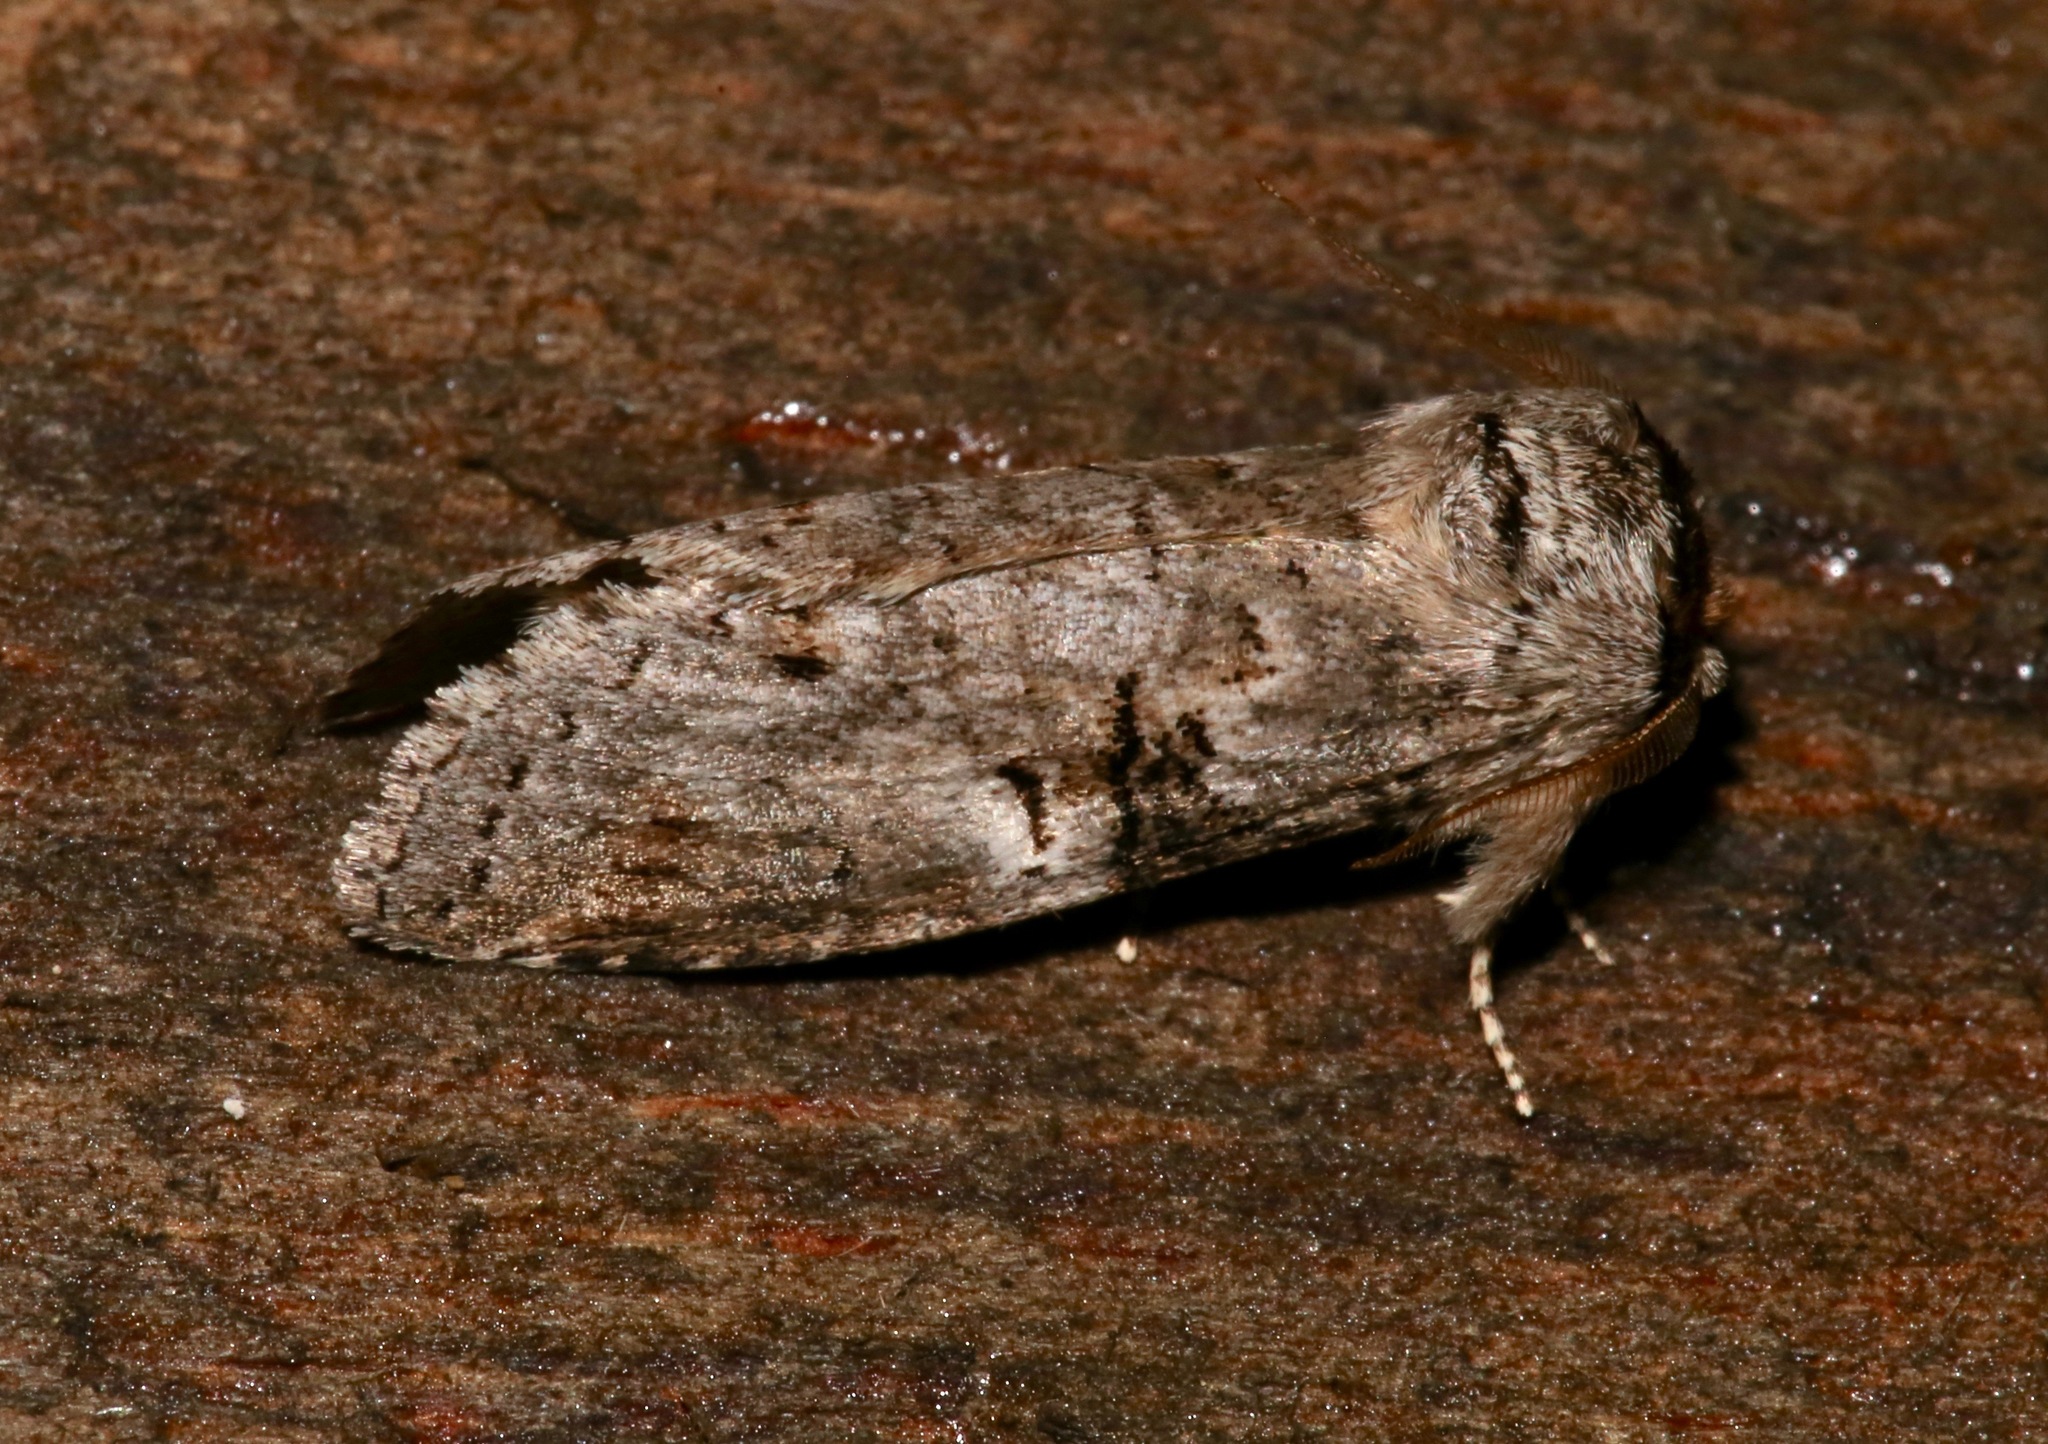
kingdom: Animalia
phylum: Arthropoda
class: Insecta
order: Lepidoptera
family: Notodontidae
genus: Ellida
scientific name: Ellida caniplaga
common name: Linden prominent
